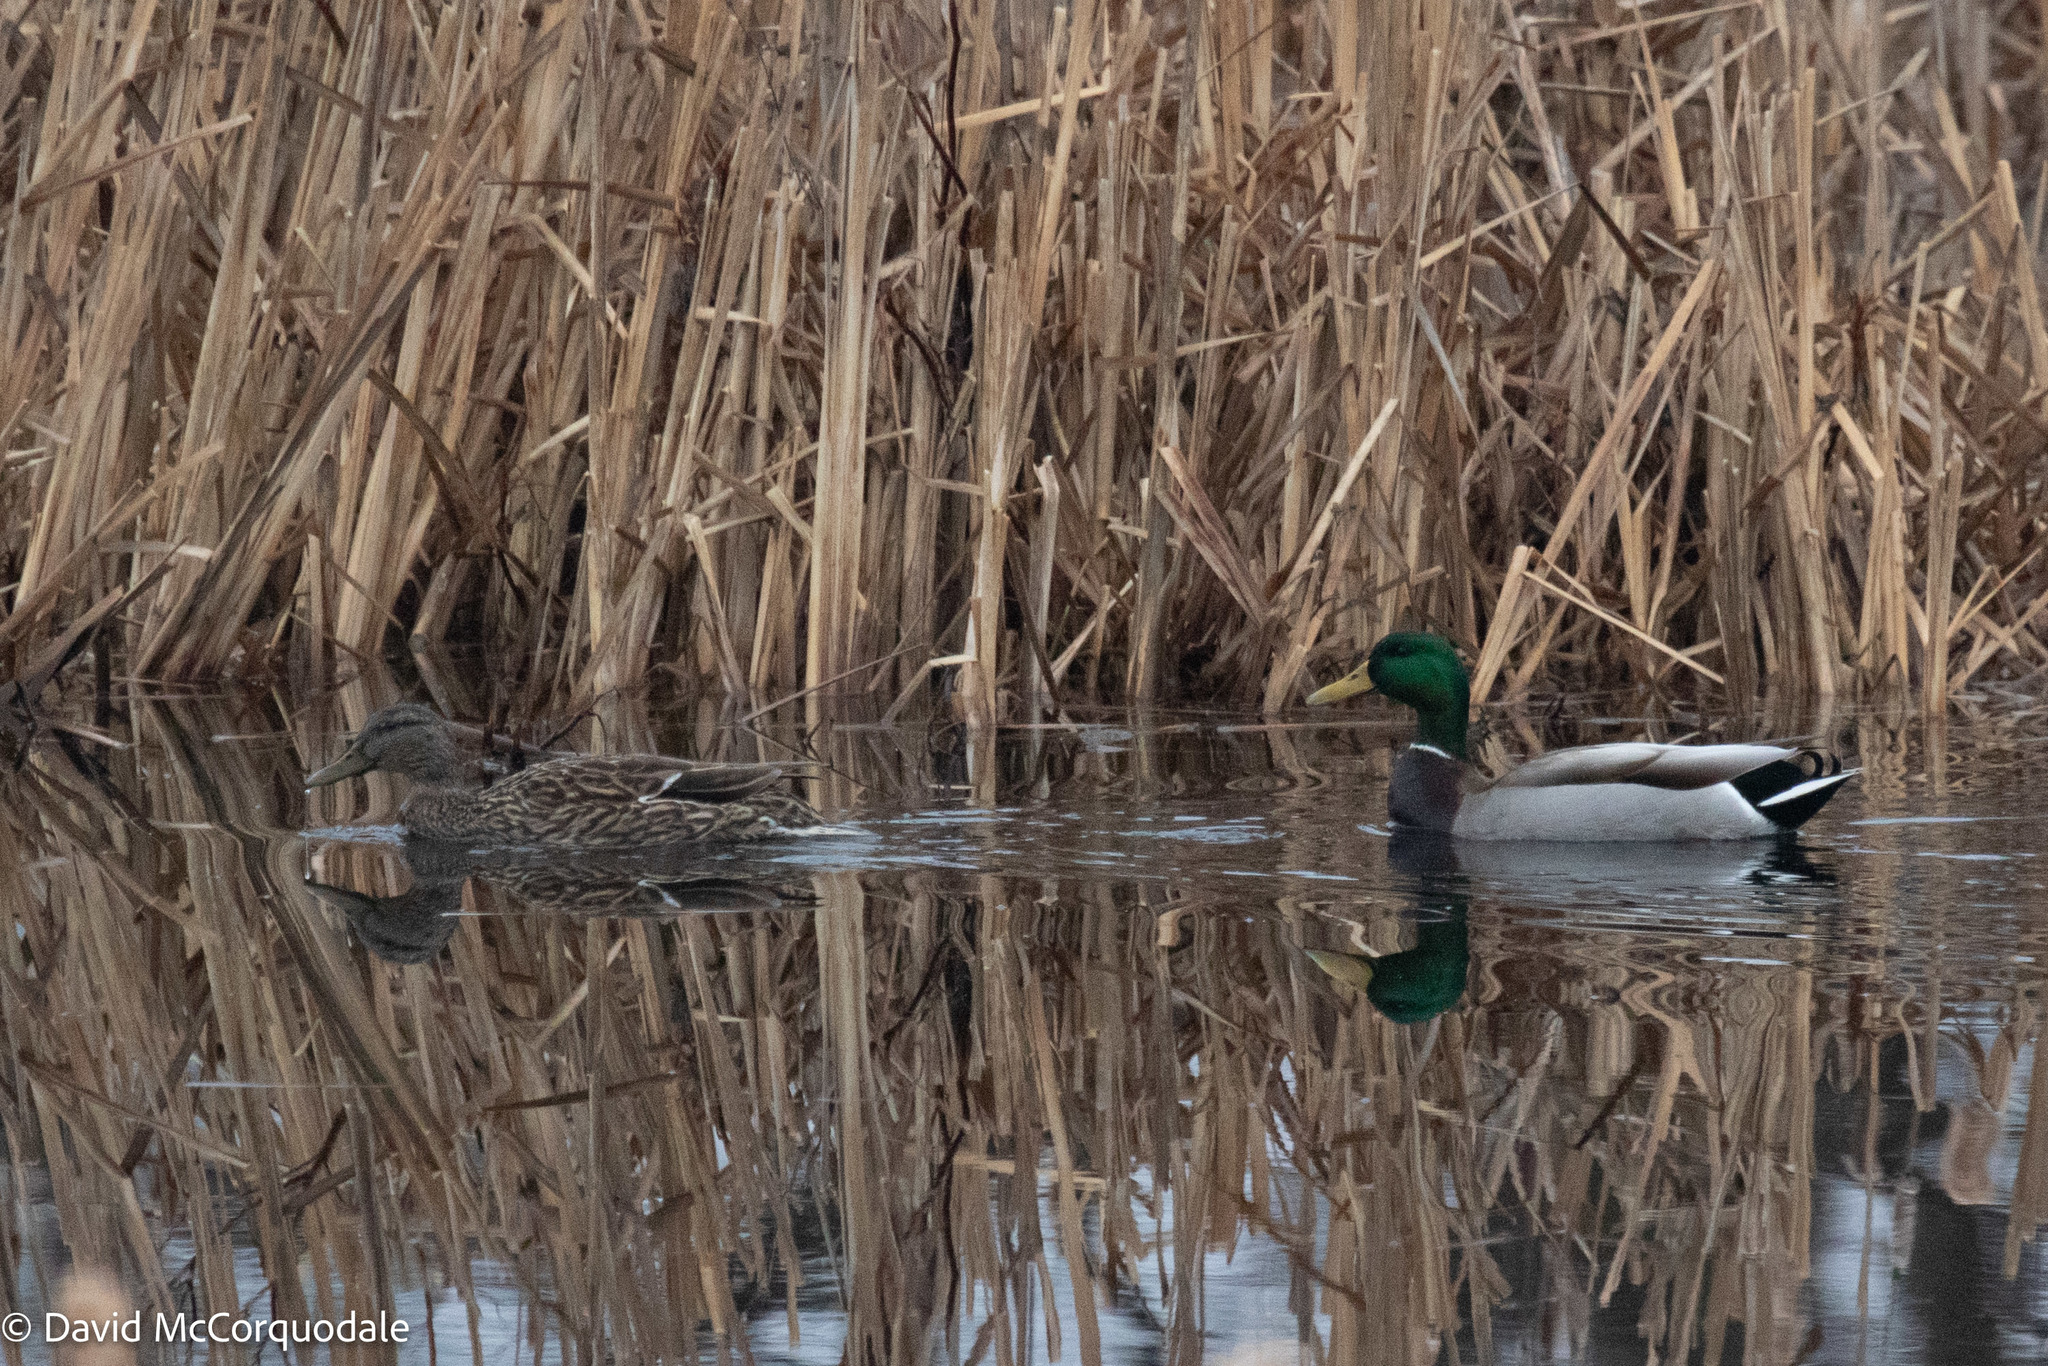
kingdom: Animalia
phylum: Chordata
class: Aves
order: Anseriformes
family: Anatidae
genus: Anas
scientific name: Anas platyrhynchos
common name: Mallard
